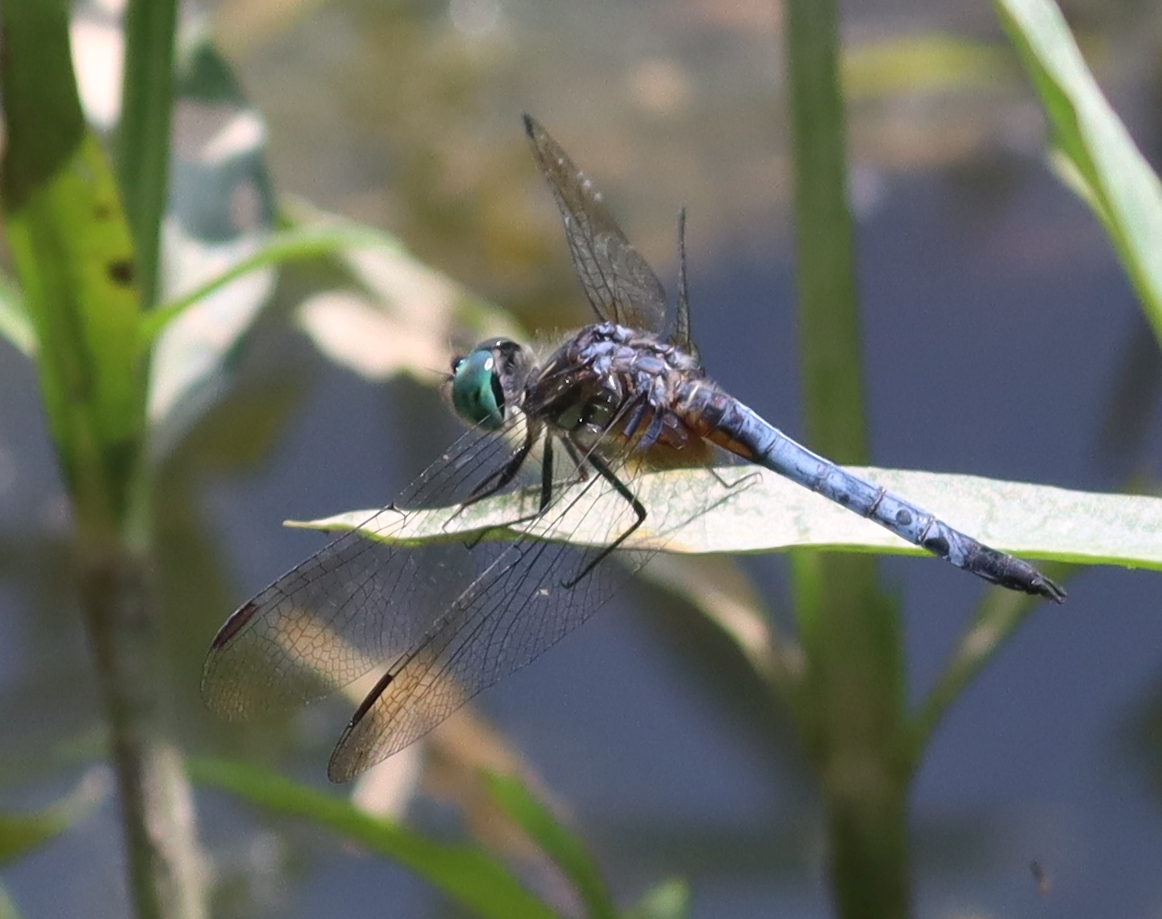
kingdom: Animalia
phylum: Arthropoda
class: Insecta
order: Odonata
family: Libellulidae
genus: Pachydiplax
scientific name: Pachydiplax longipennis
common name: Blue dasher
